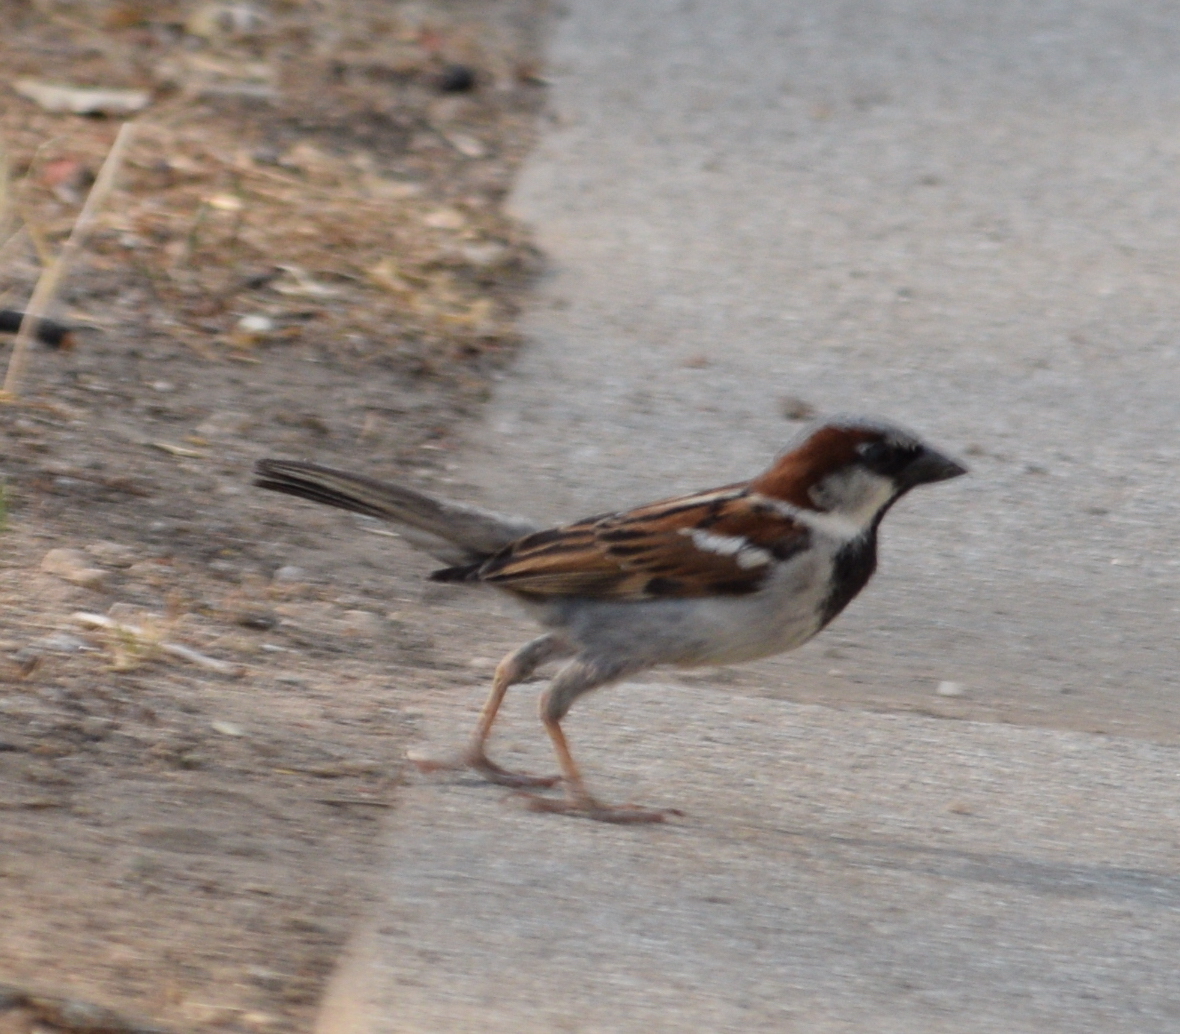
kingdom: Animalia
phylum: Chordata
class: Aves
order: Passeriformes
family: Passeridae
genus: Passer
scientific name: Passer domesticus
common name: House sparrow
